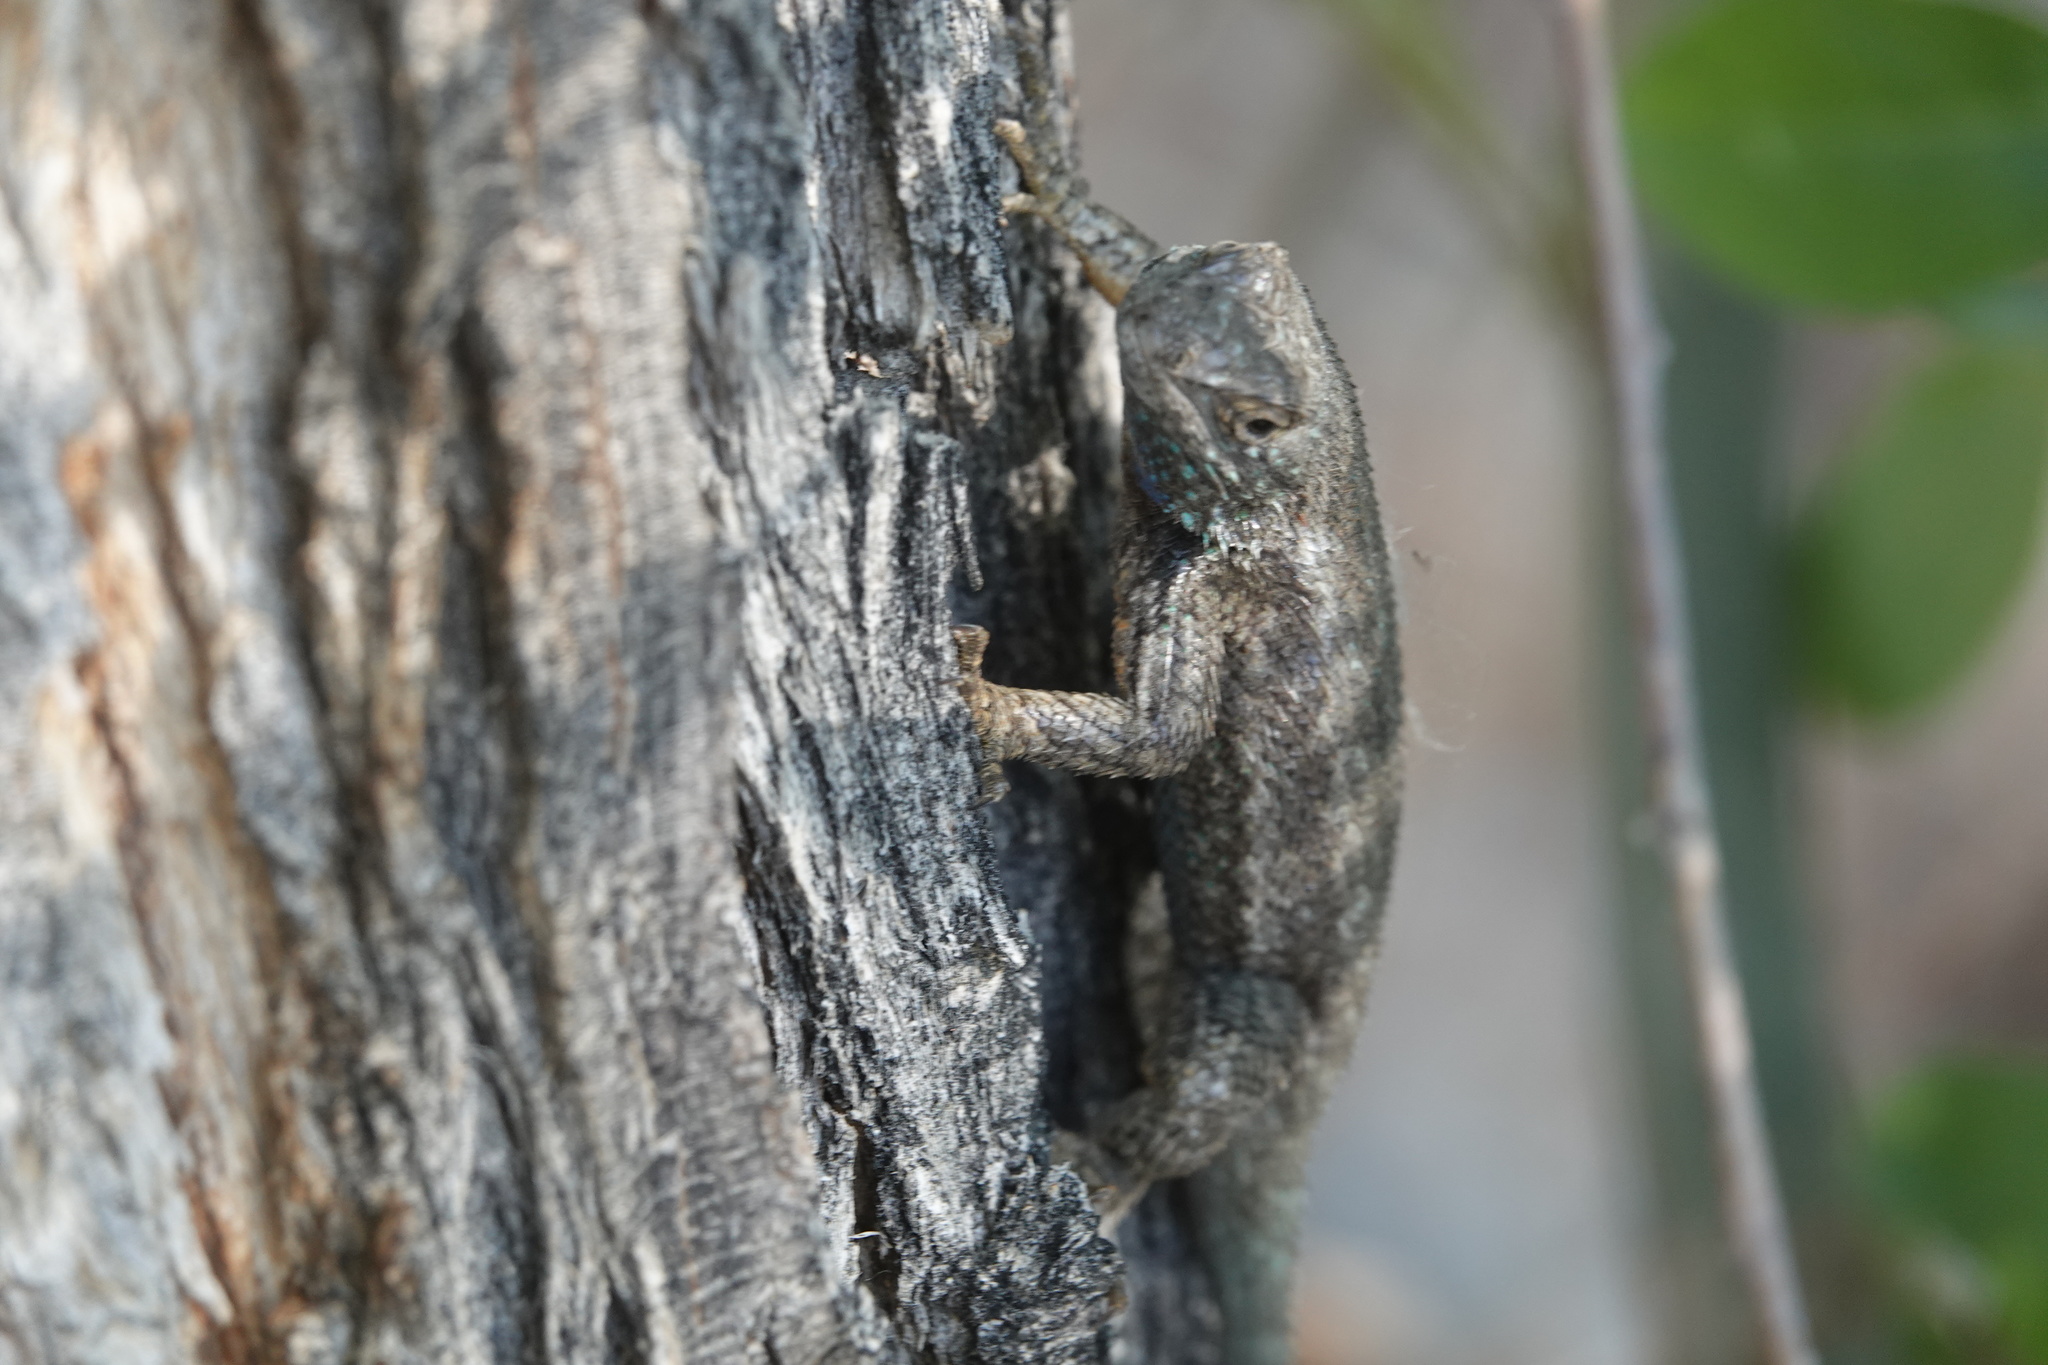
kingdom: Animalia
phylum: Chordata
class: Squamata
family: Phrynosomatidae
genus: Sceloporus
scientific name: Sceloporus occidentalis
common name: Western fence lizard
